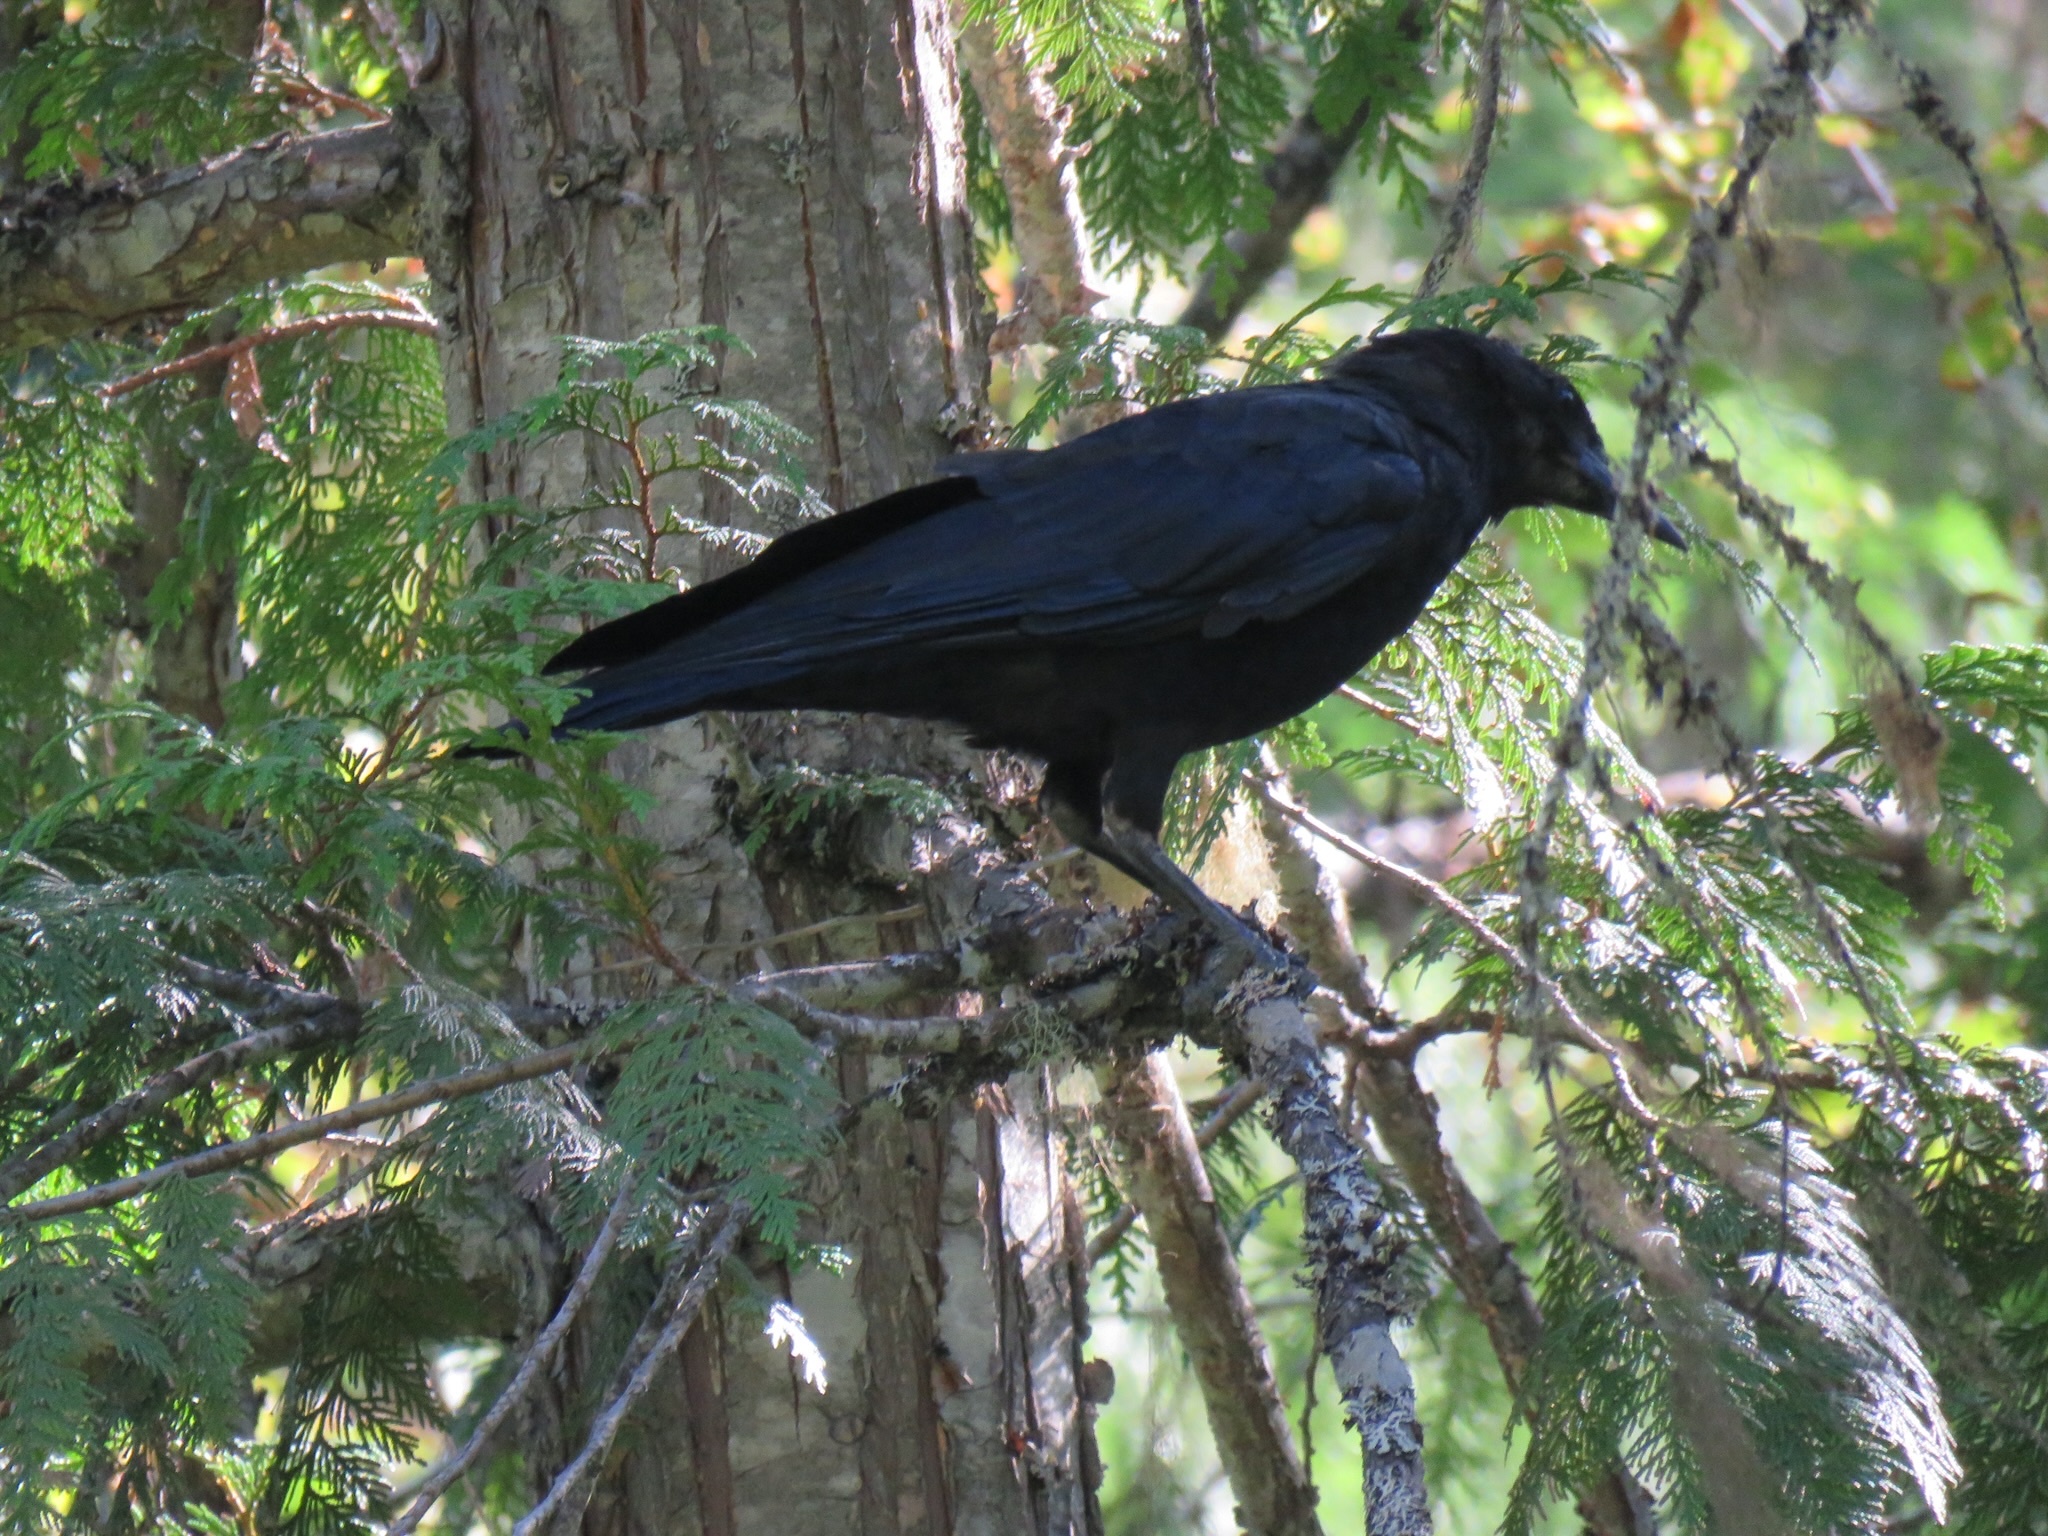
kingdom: Animalia
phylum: Chordata
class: Aves
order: Passeriformes
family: Corvidae
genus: Corvus
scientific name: Corvus brachyrhynchos
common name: American crow
